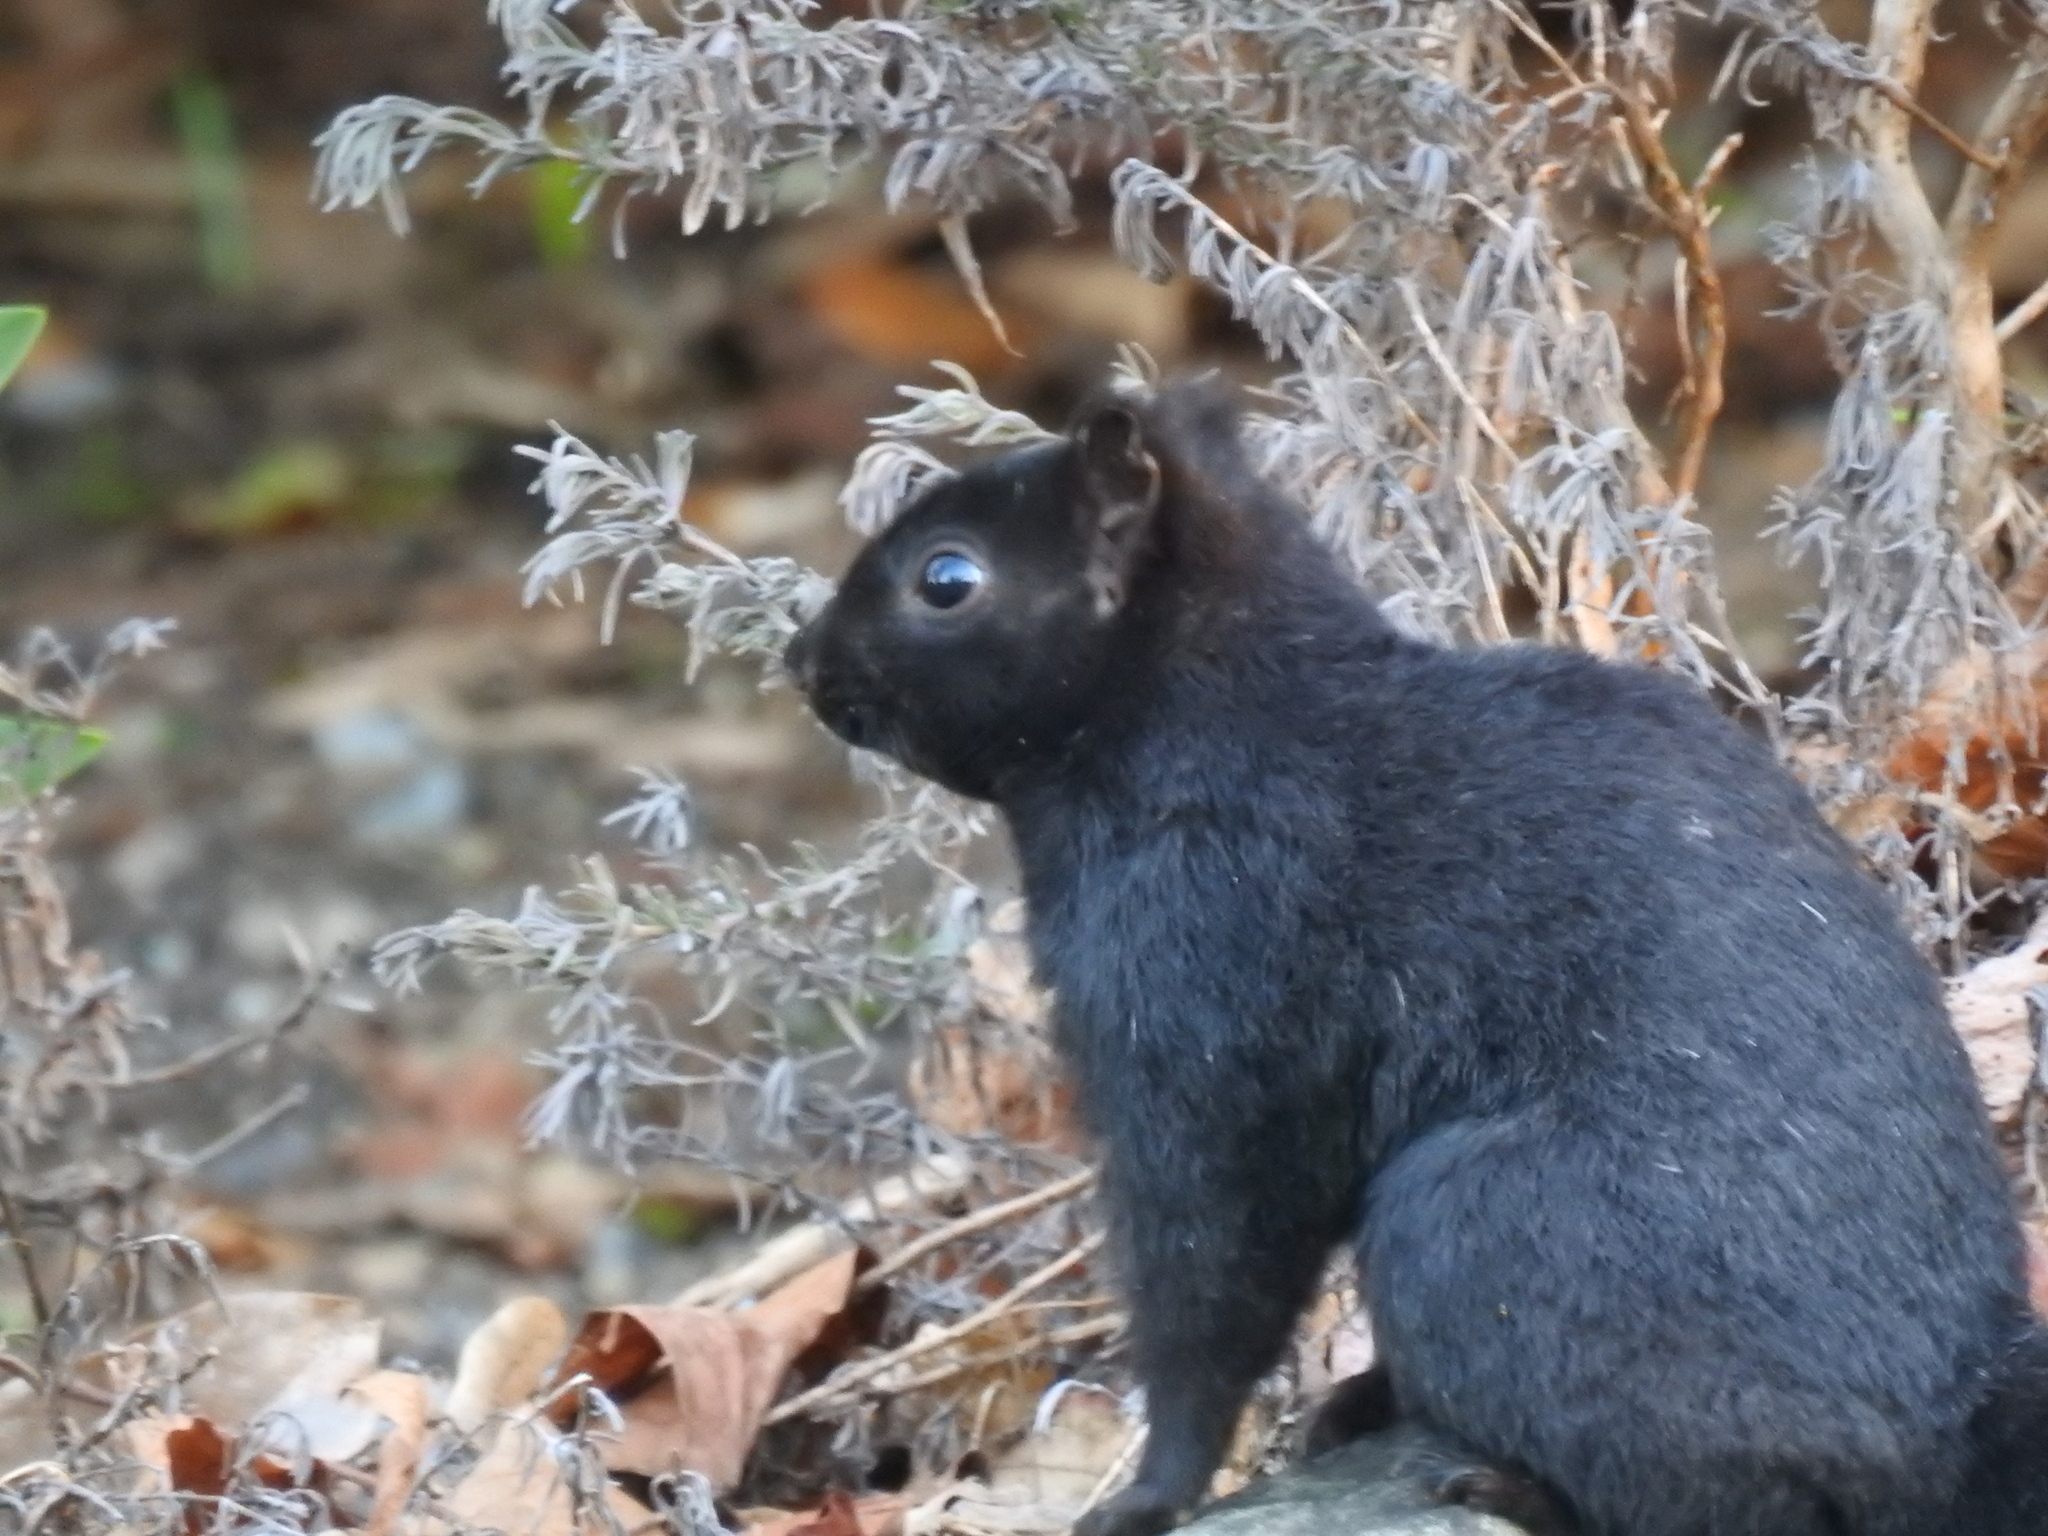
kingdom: Animalia
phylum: Chordata
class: Mammalia
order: Rodentia
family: Sciuridae
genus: Sciurus
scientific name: Sciurus carolinensis
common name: Eastern gray squirrel
